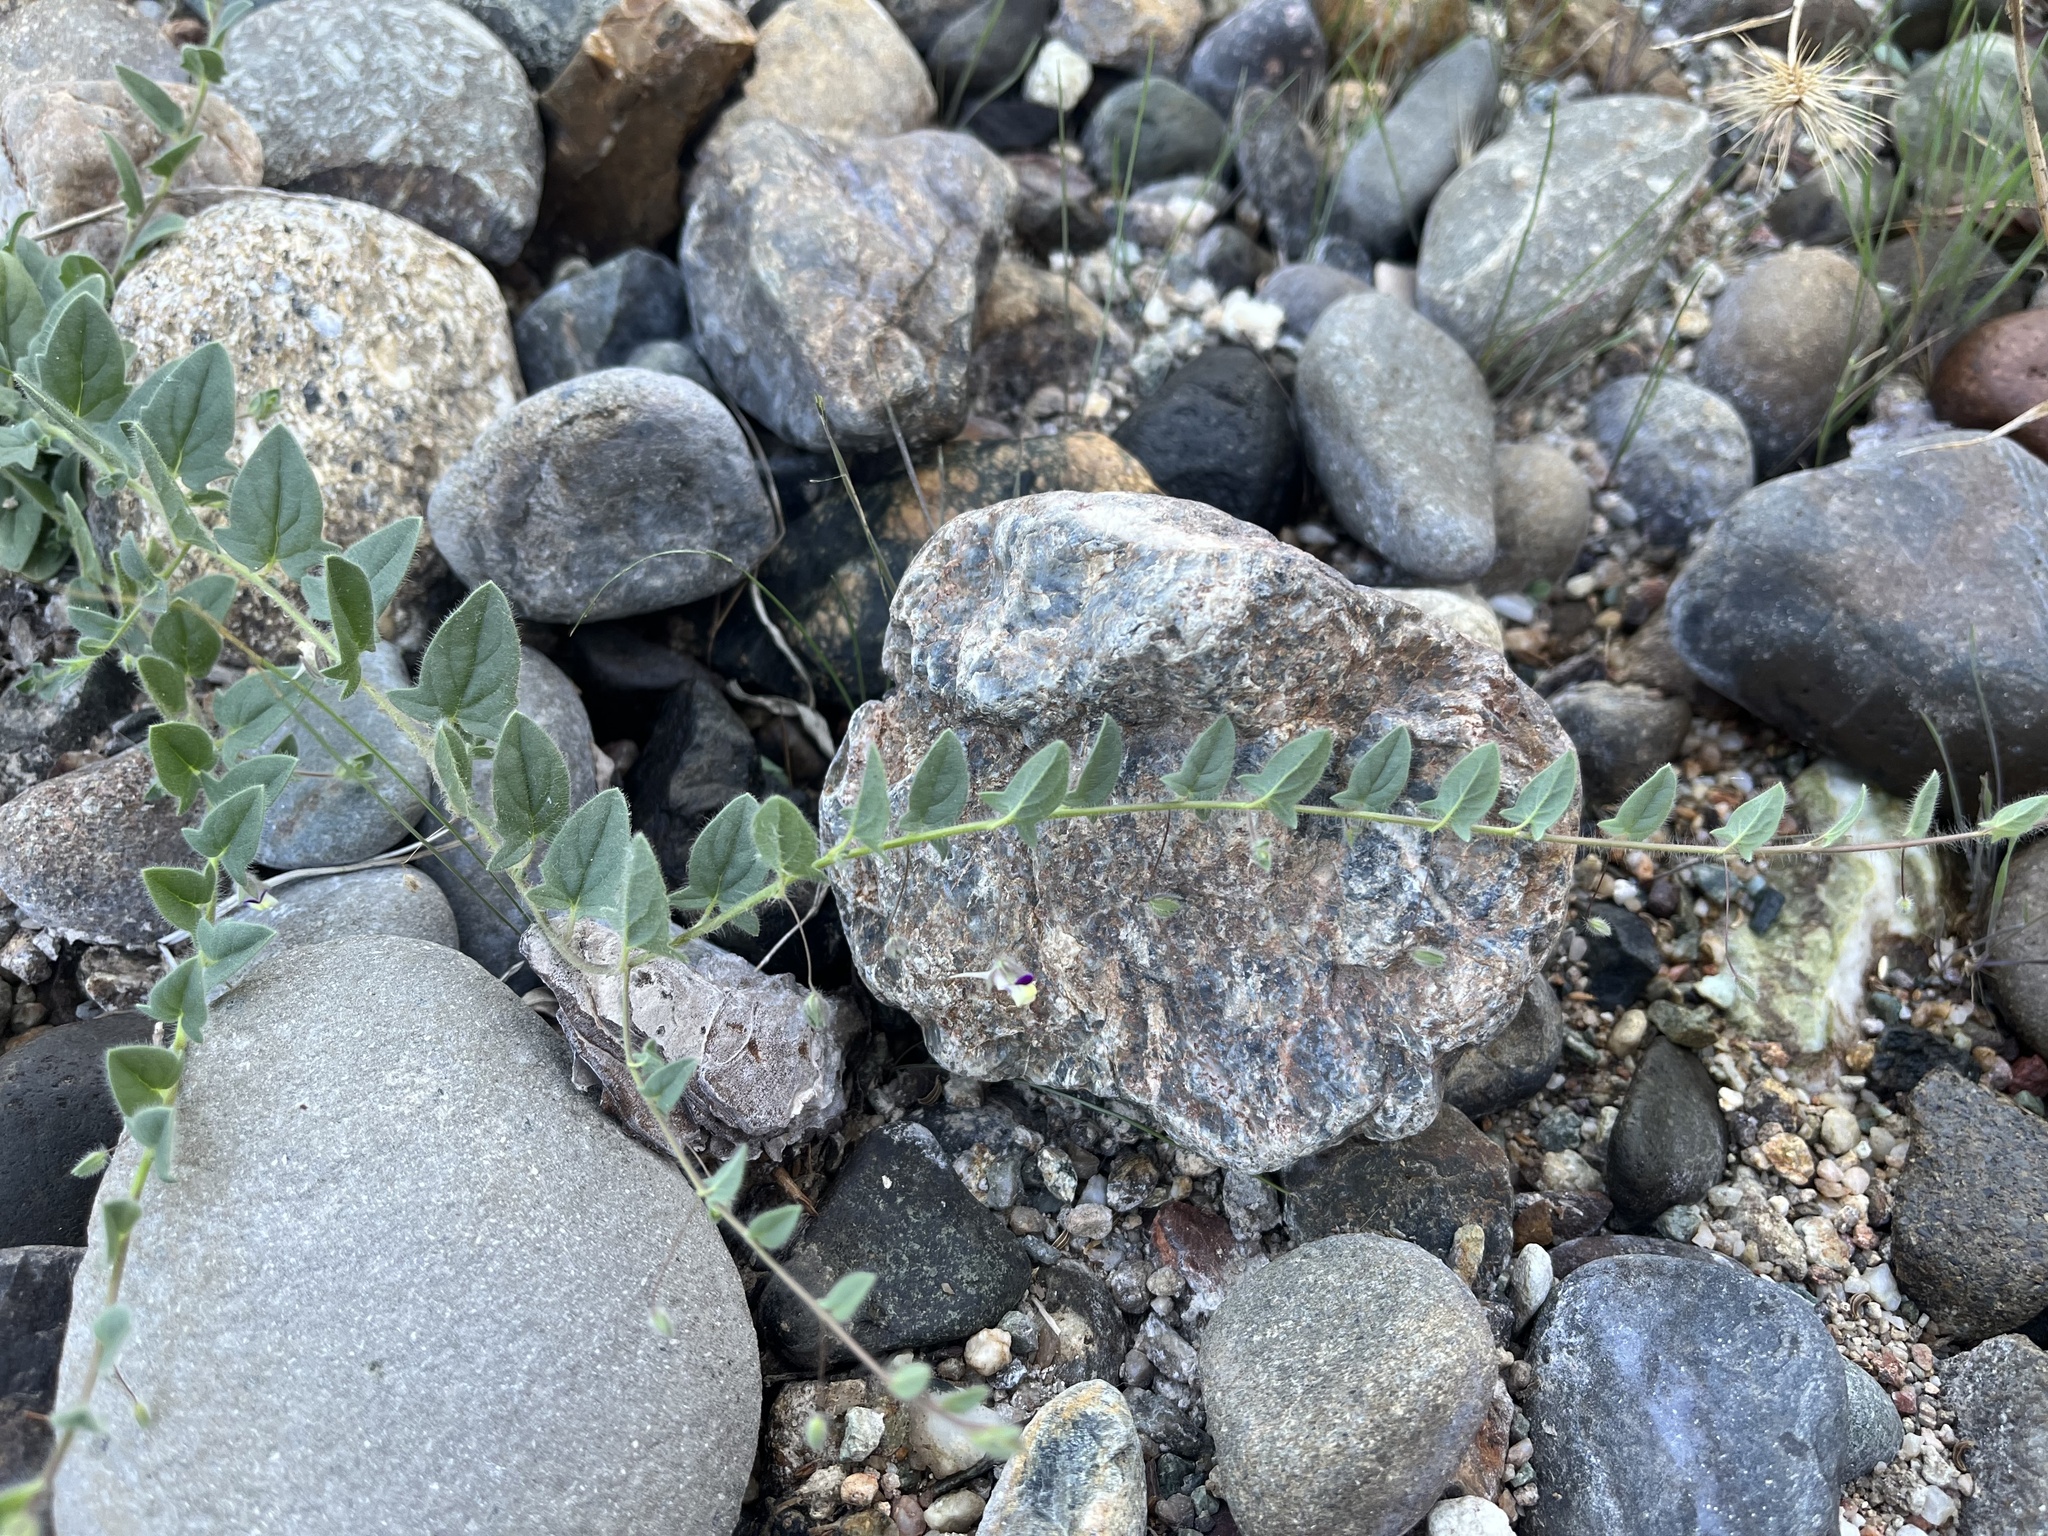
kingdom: Plantae
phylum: Tracheophyta
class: Magnoliopsida
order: Lamiales
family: Plantaginaceae
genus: Kickxia
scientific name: Kickxia elatine
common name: Sharp-leaved fluellen
